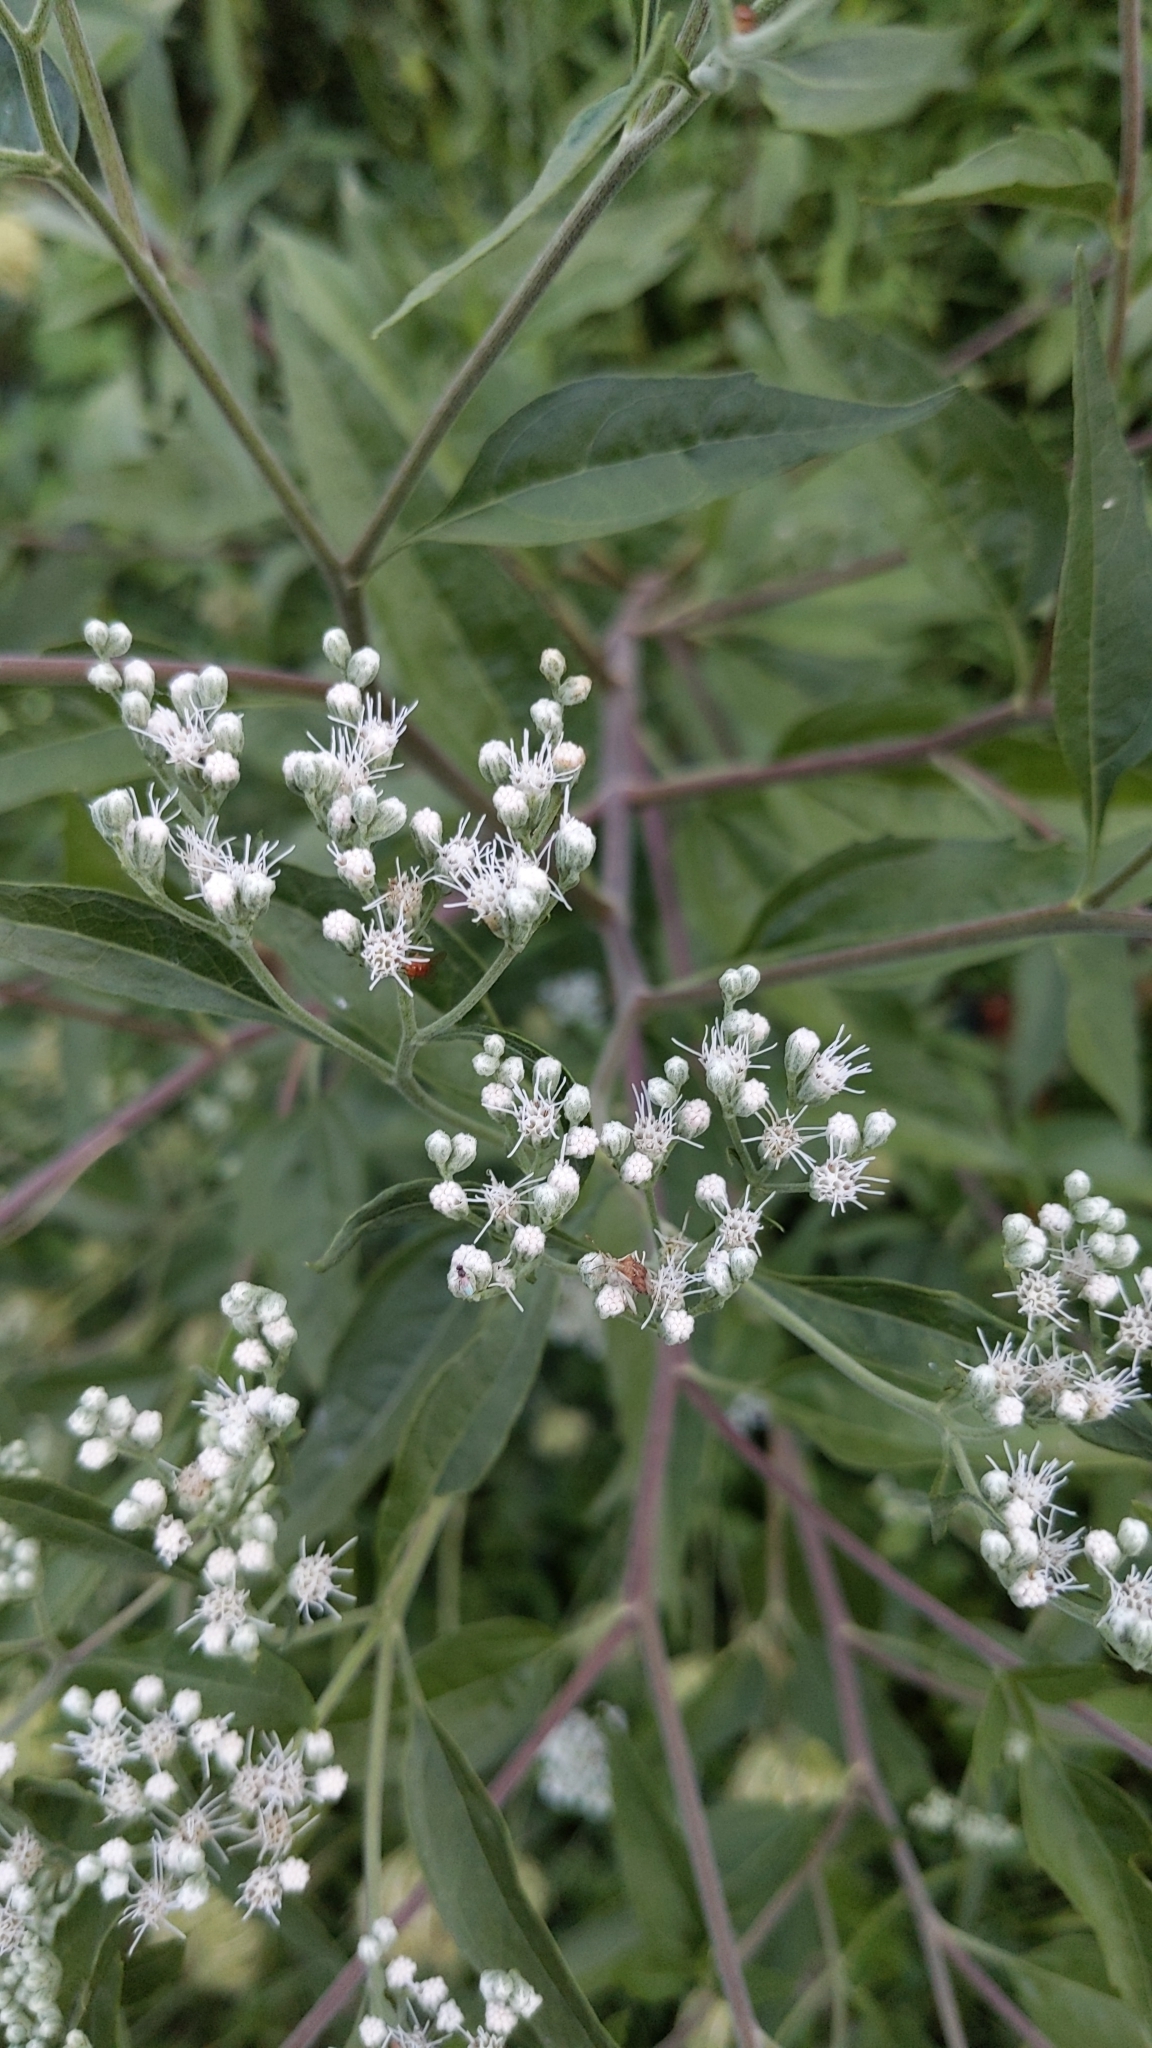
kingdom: Plantae
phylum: Tracheophyta
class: Magnoliopsida
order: Asterales
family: Asteraceae
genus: Eupatorium
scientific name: Eupatorium serotinum
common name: Late boneset
